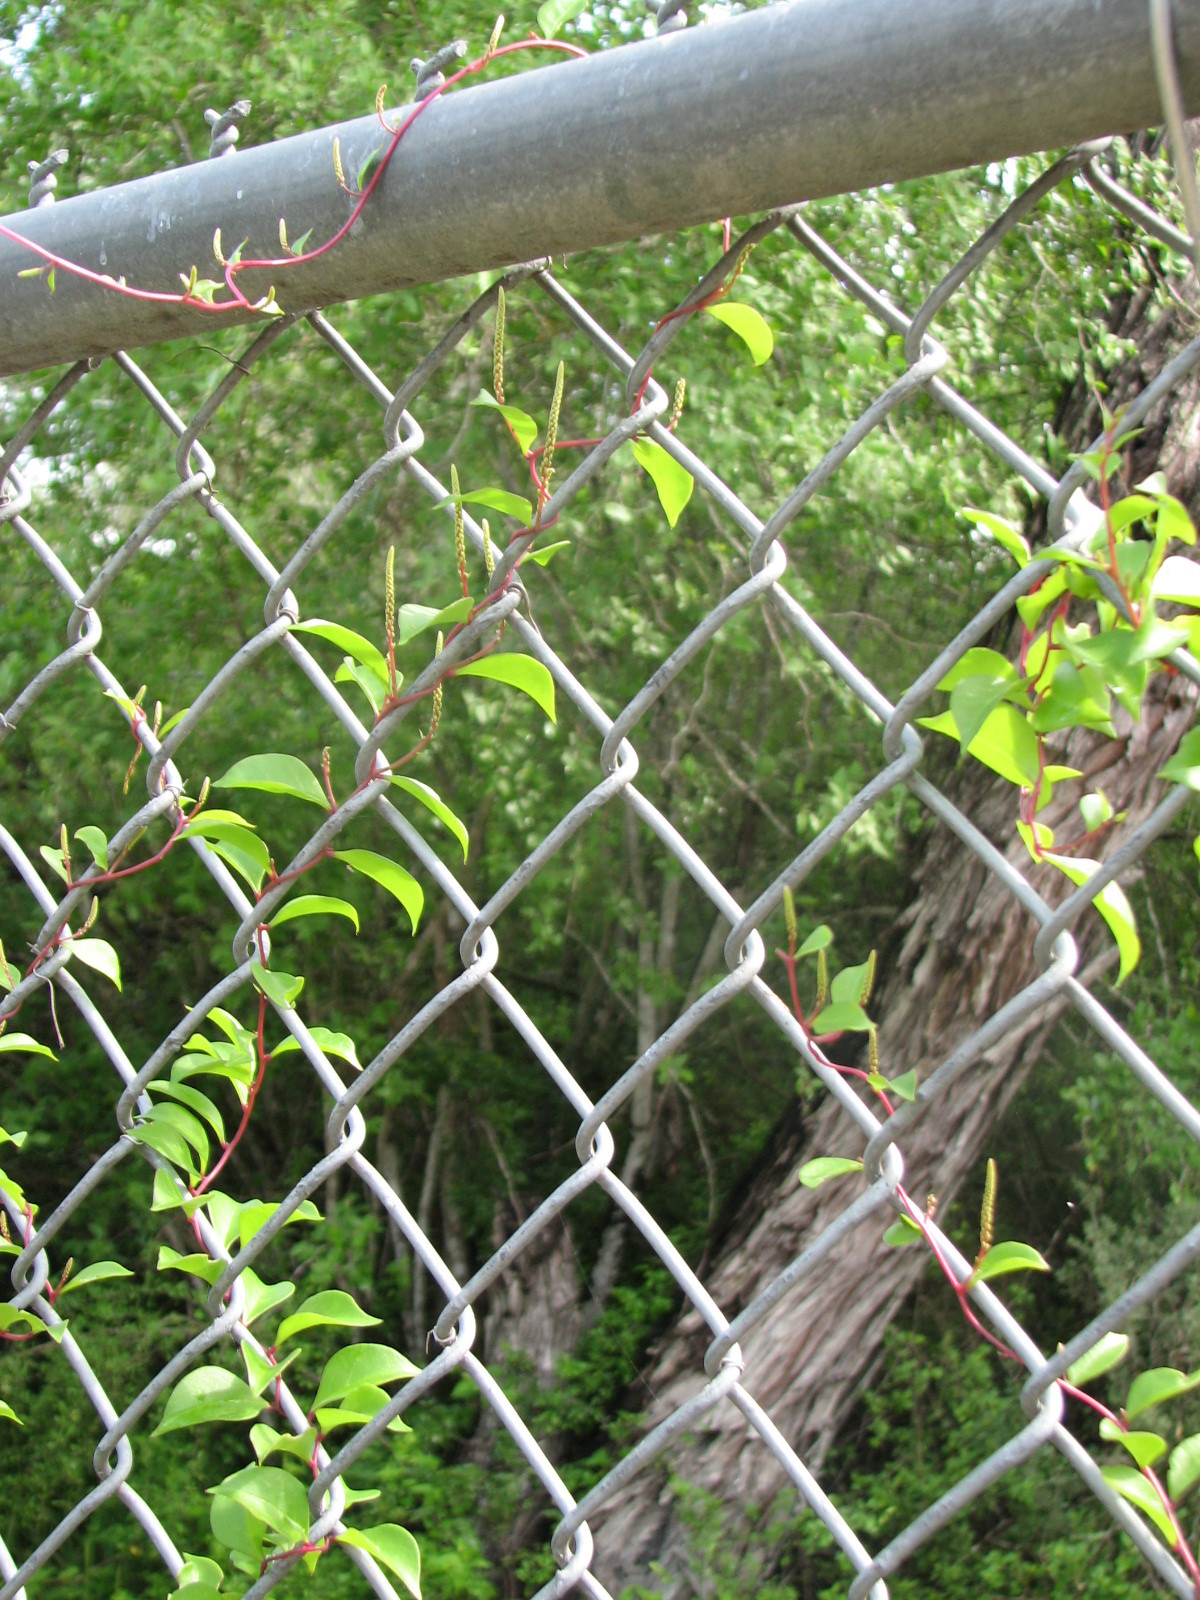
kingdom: Plantae
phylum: Tracheophyta
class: Magnoliopsida
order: Caryophyllales
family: Basellaceae
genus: Anredera
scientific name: Anredera vesicaria
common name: Sacasile
